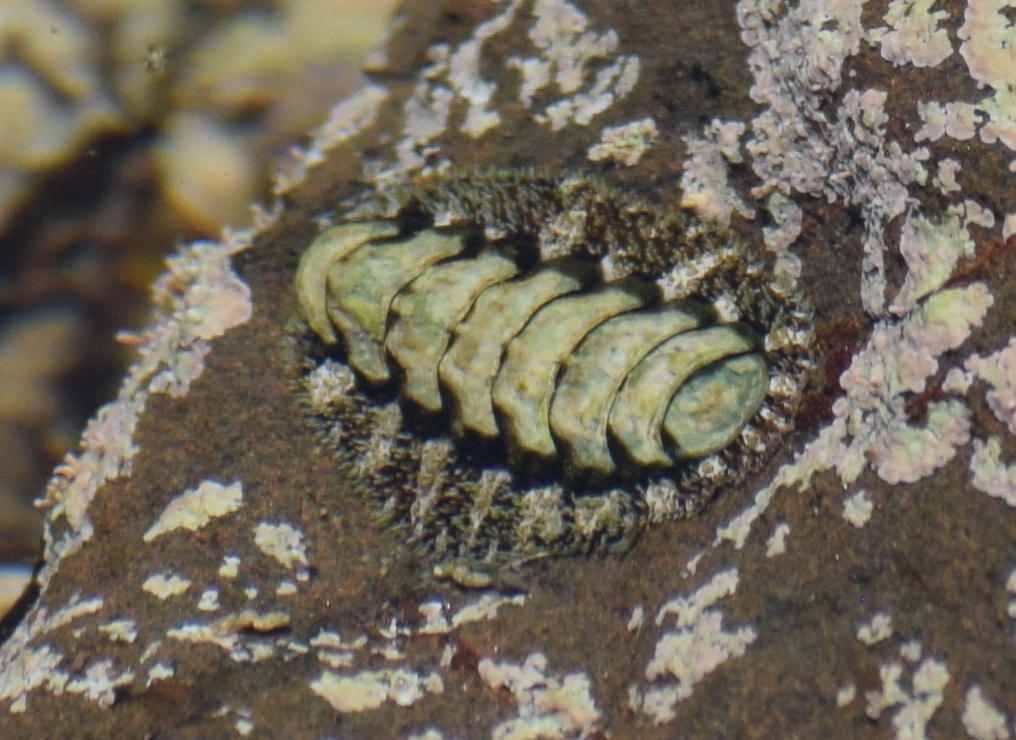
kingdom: Animalia
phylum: Mollusca
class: Polyplacophora
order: Chitonida
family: Tonicellidae
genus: Nuttallina
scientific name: Nuttallina californica
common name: California nuttall chiton
